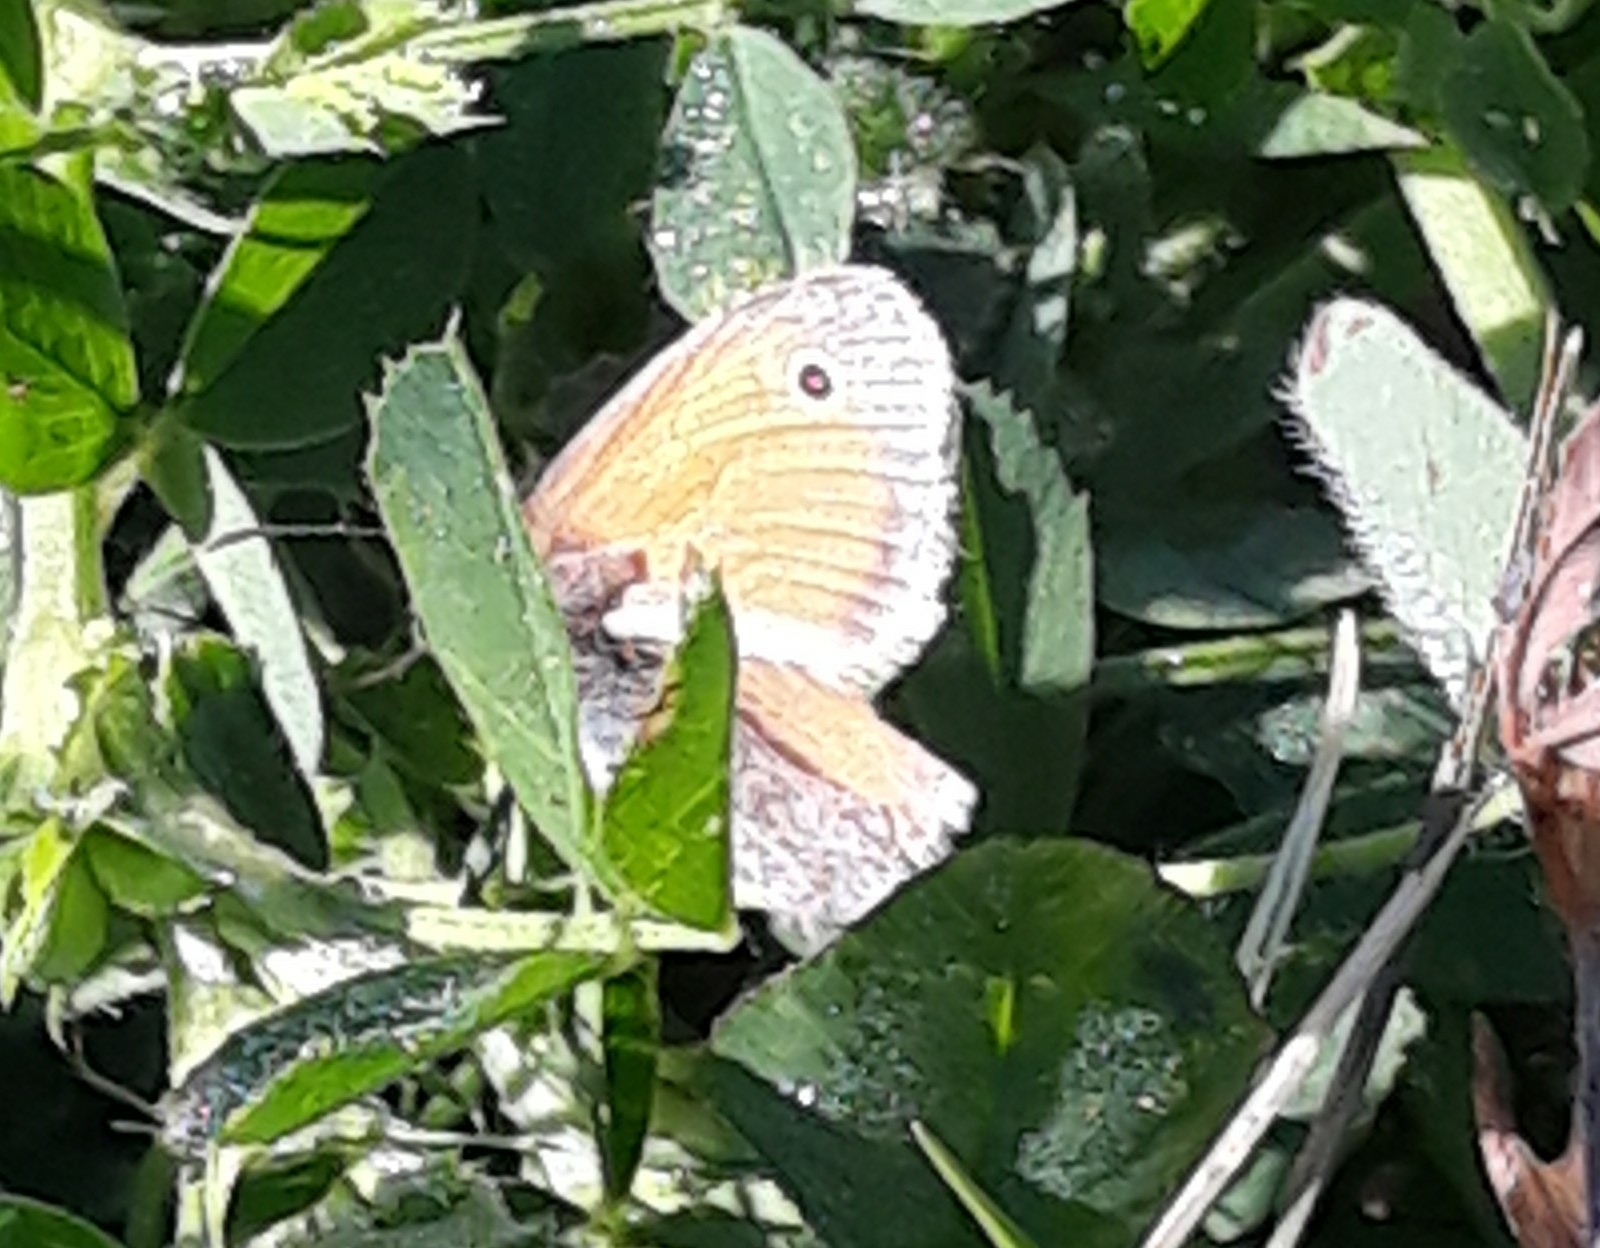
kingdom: Animalia
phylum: Arthropoda
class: Insecta
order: Lepidoptera
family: Nymphalidae
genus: Coenonympha
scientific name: Coenonympha pamphilus
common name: Small heath
